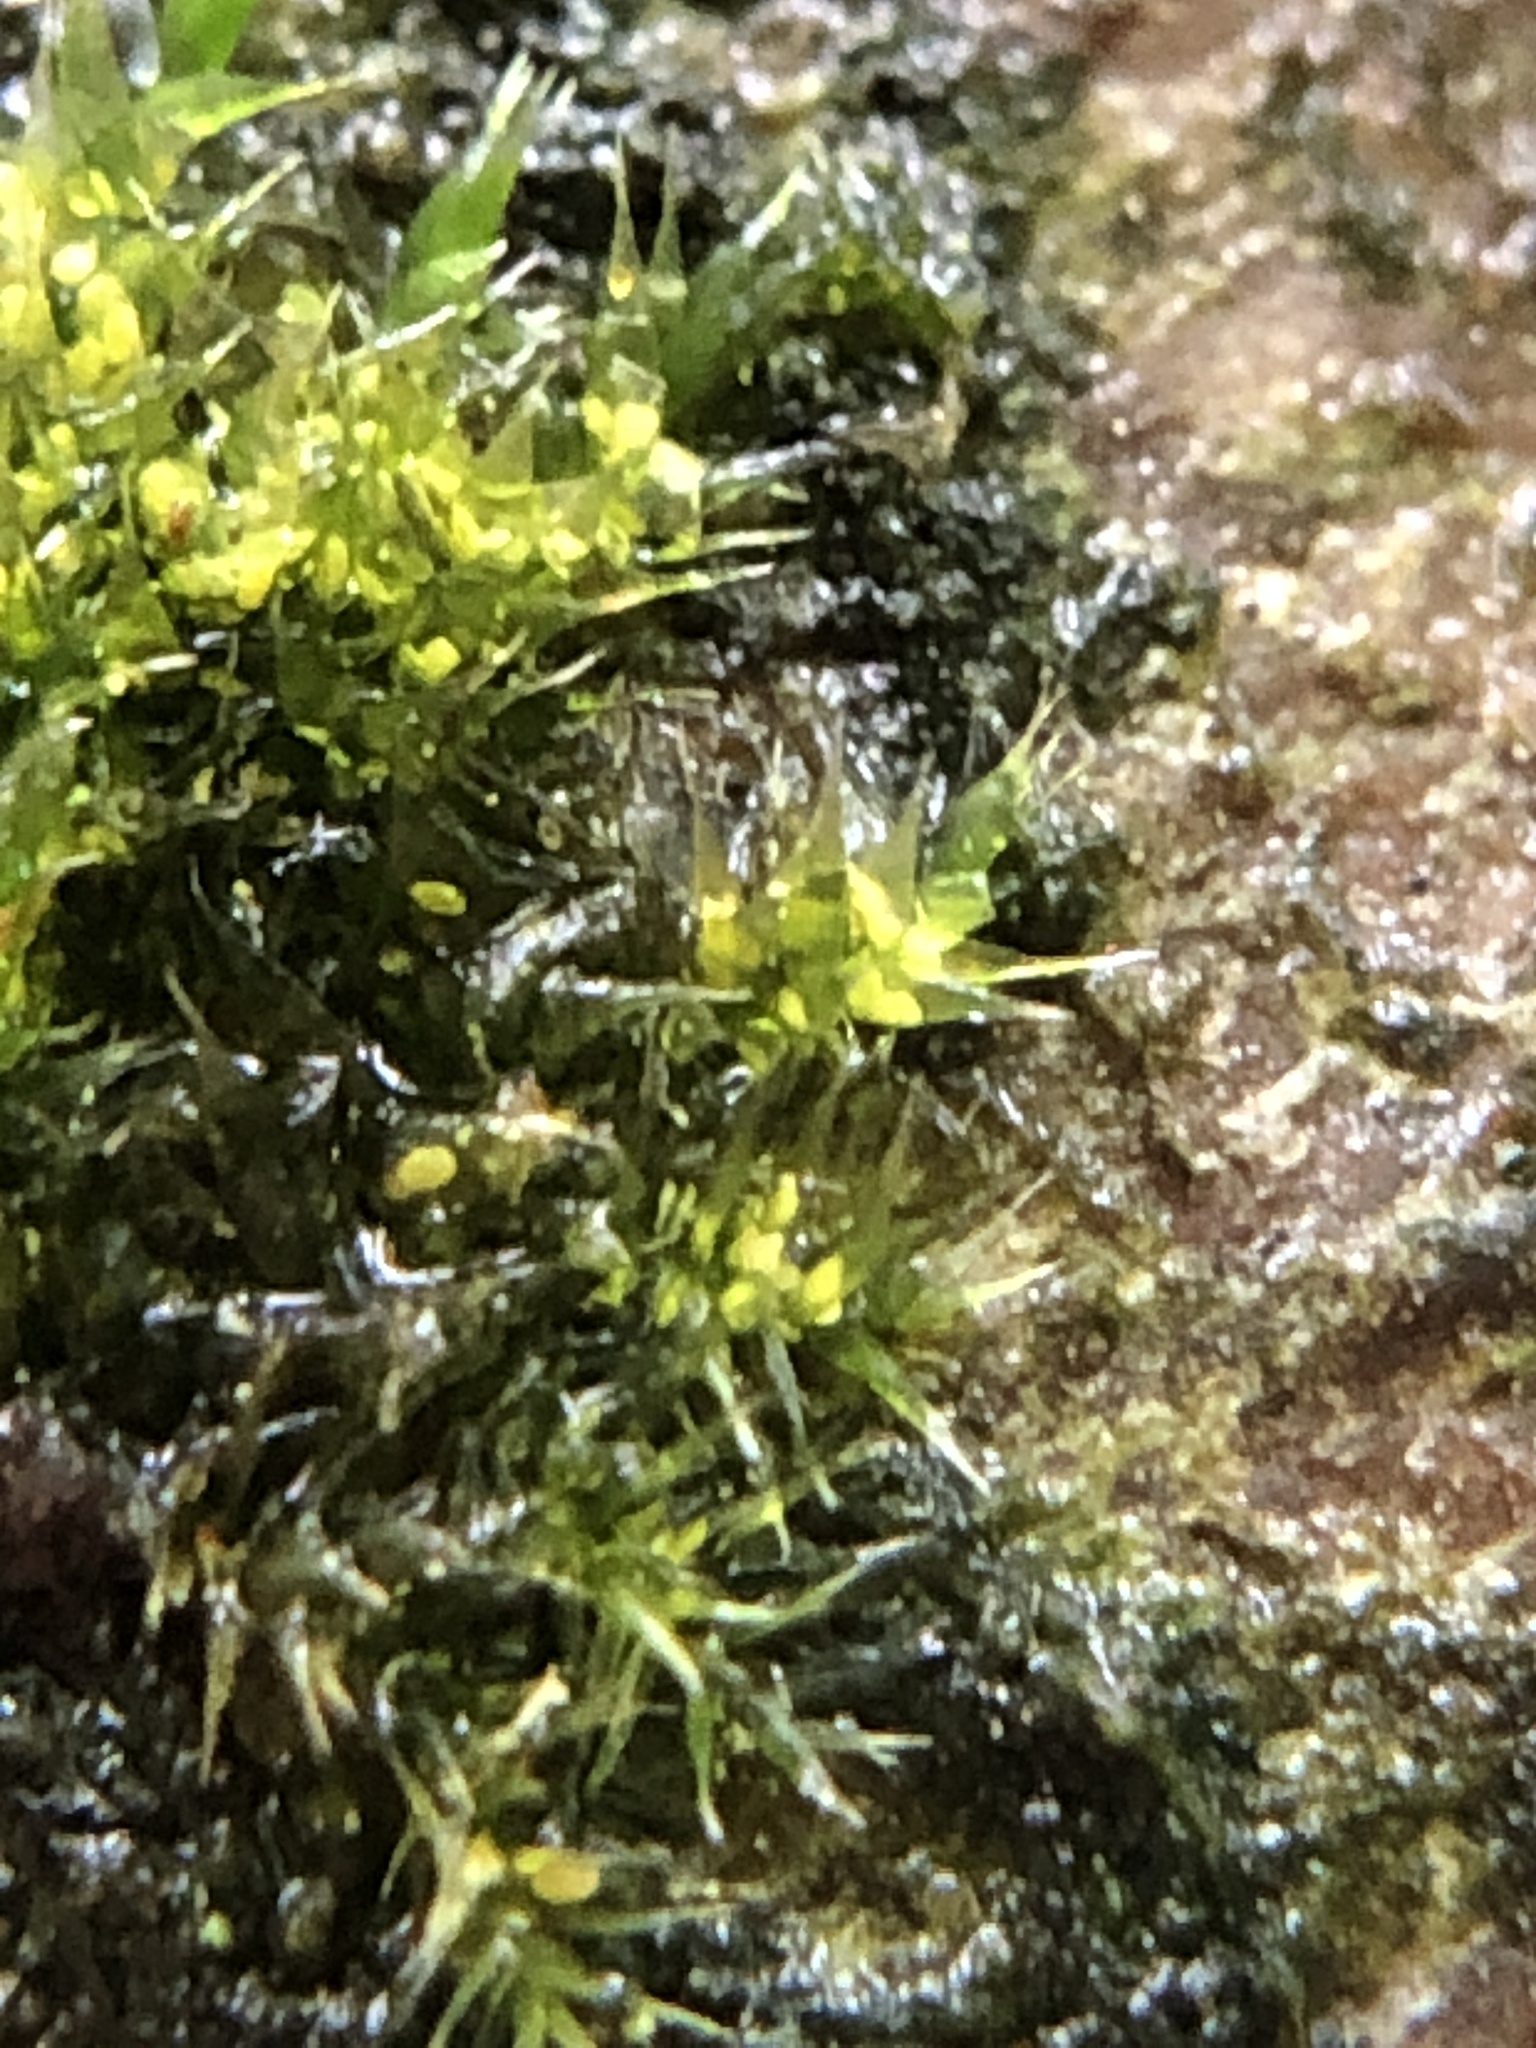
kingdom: Plantae
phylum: Bryophyta
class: Bryopsida
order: Hypnales
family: Hypnaceae
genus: Hypnum
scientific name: Hypnum resupinatum
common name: Supine plait-moss
